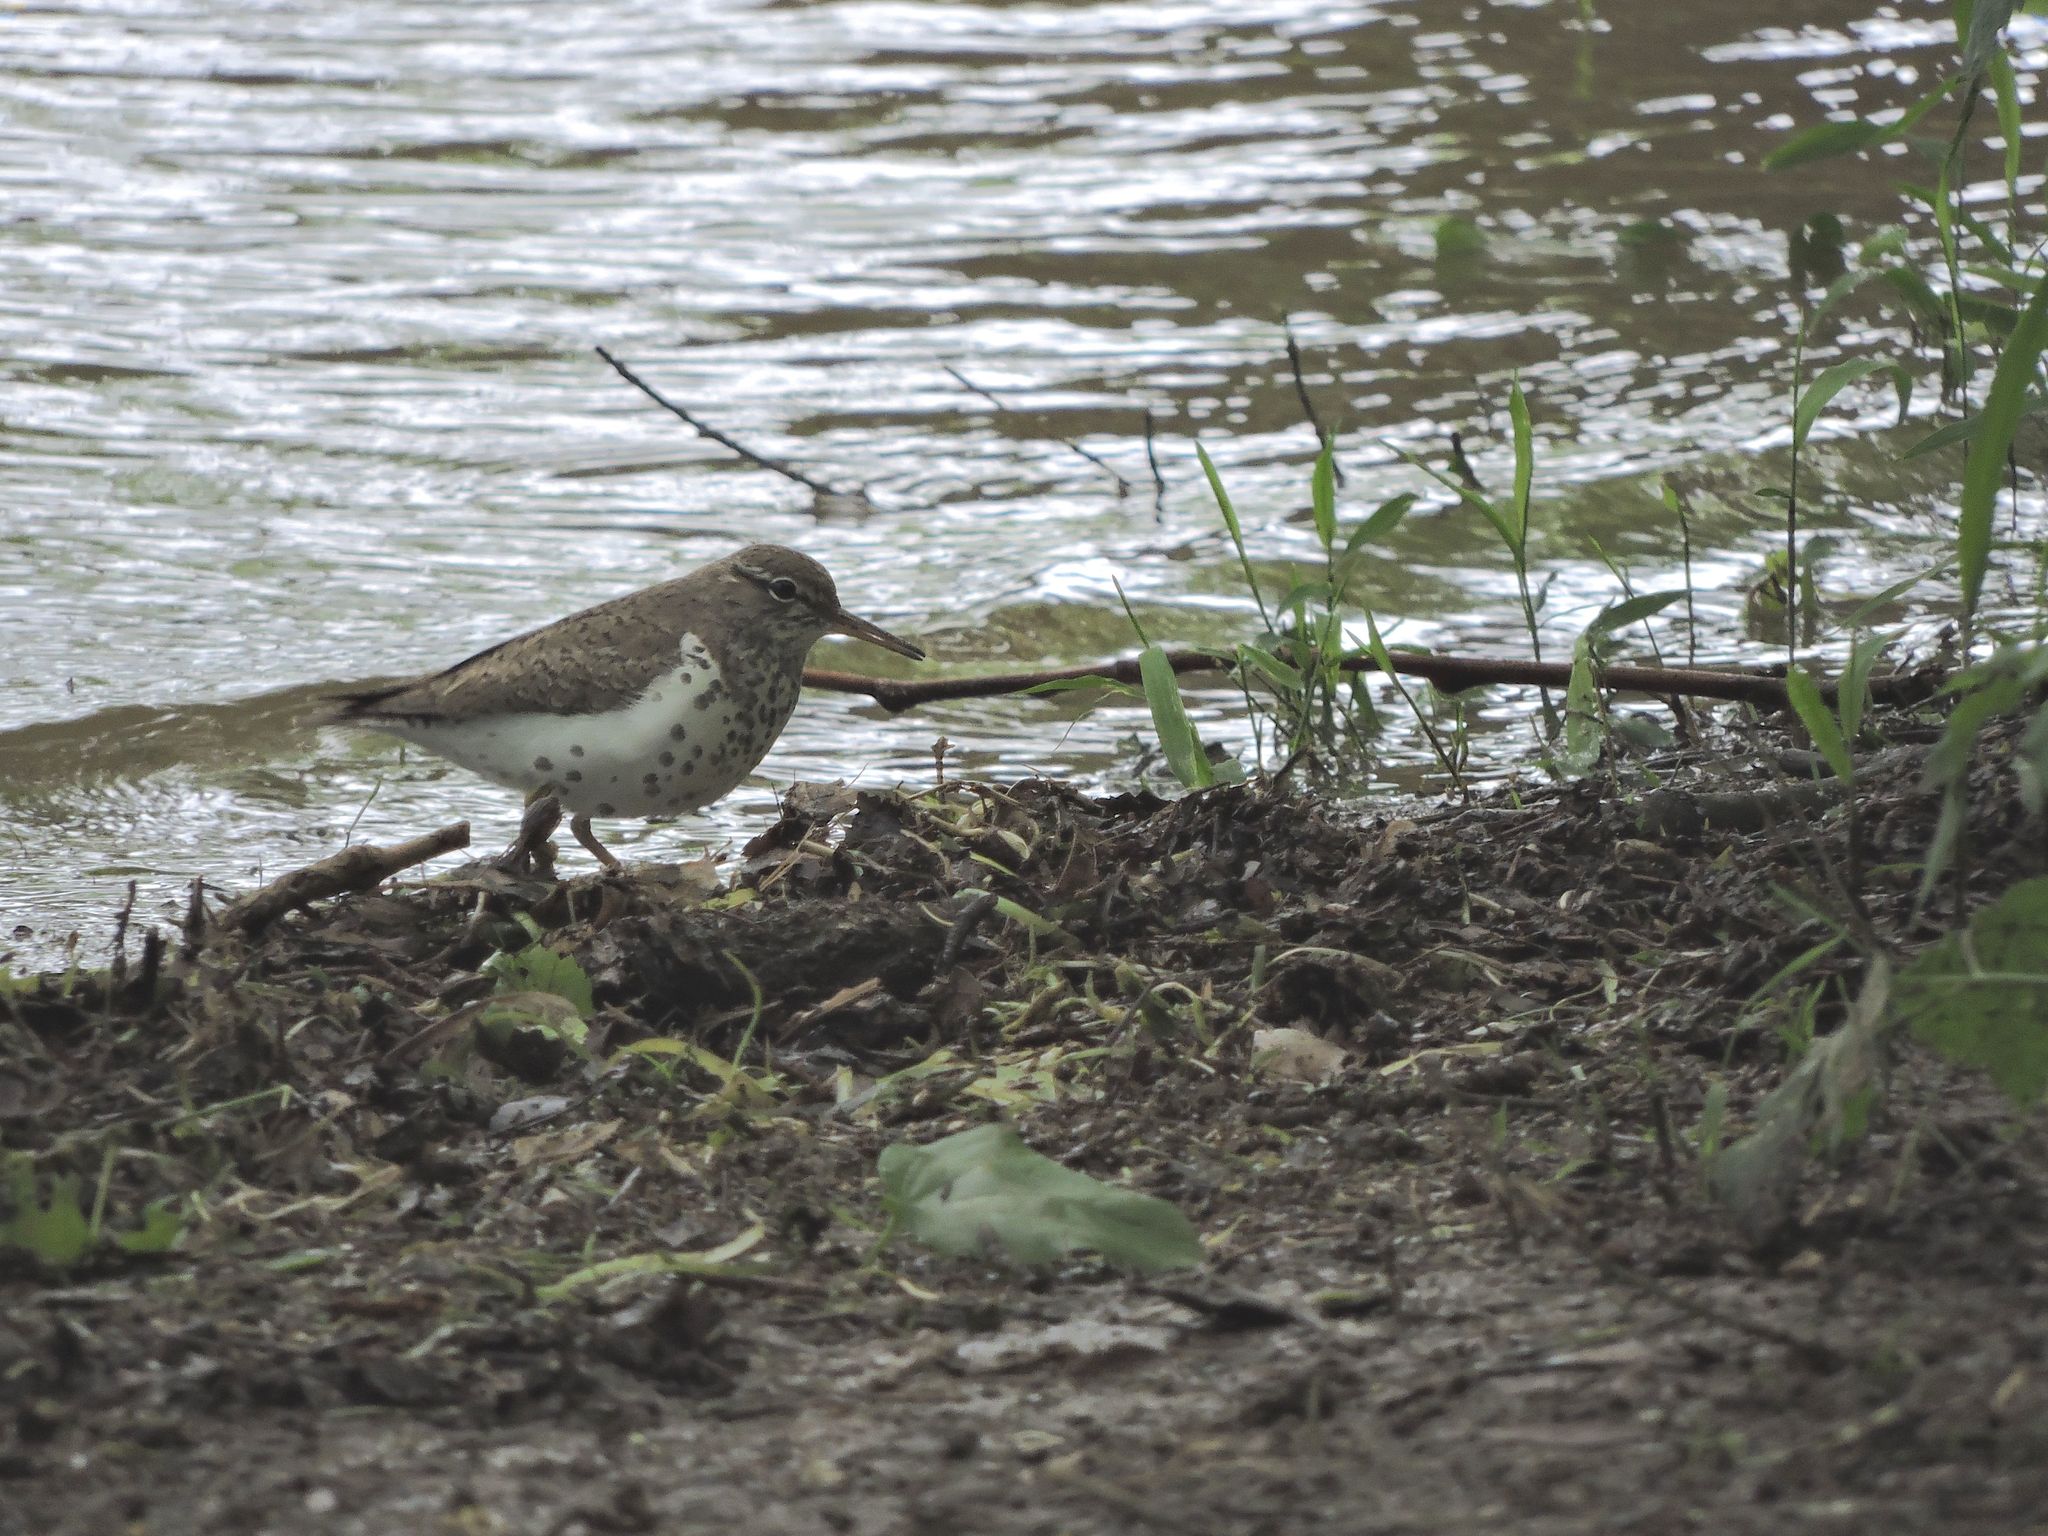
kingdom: Animalia
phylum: Chordata
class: Aves
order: Charadriiformes
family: Scolopacidae
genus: Actitis
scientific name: Actitis macularius
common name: Spotted sandpiper
